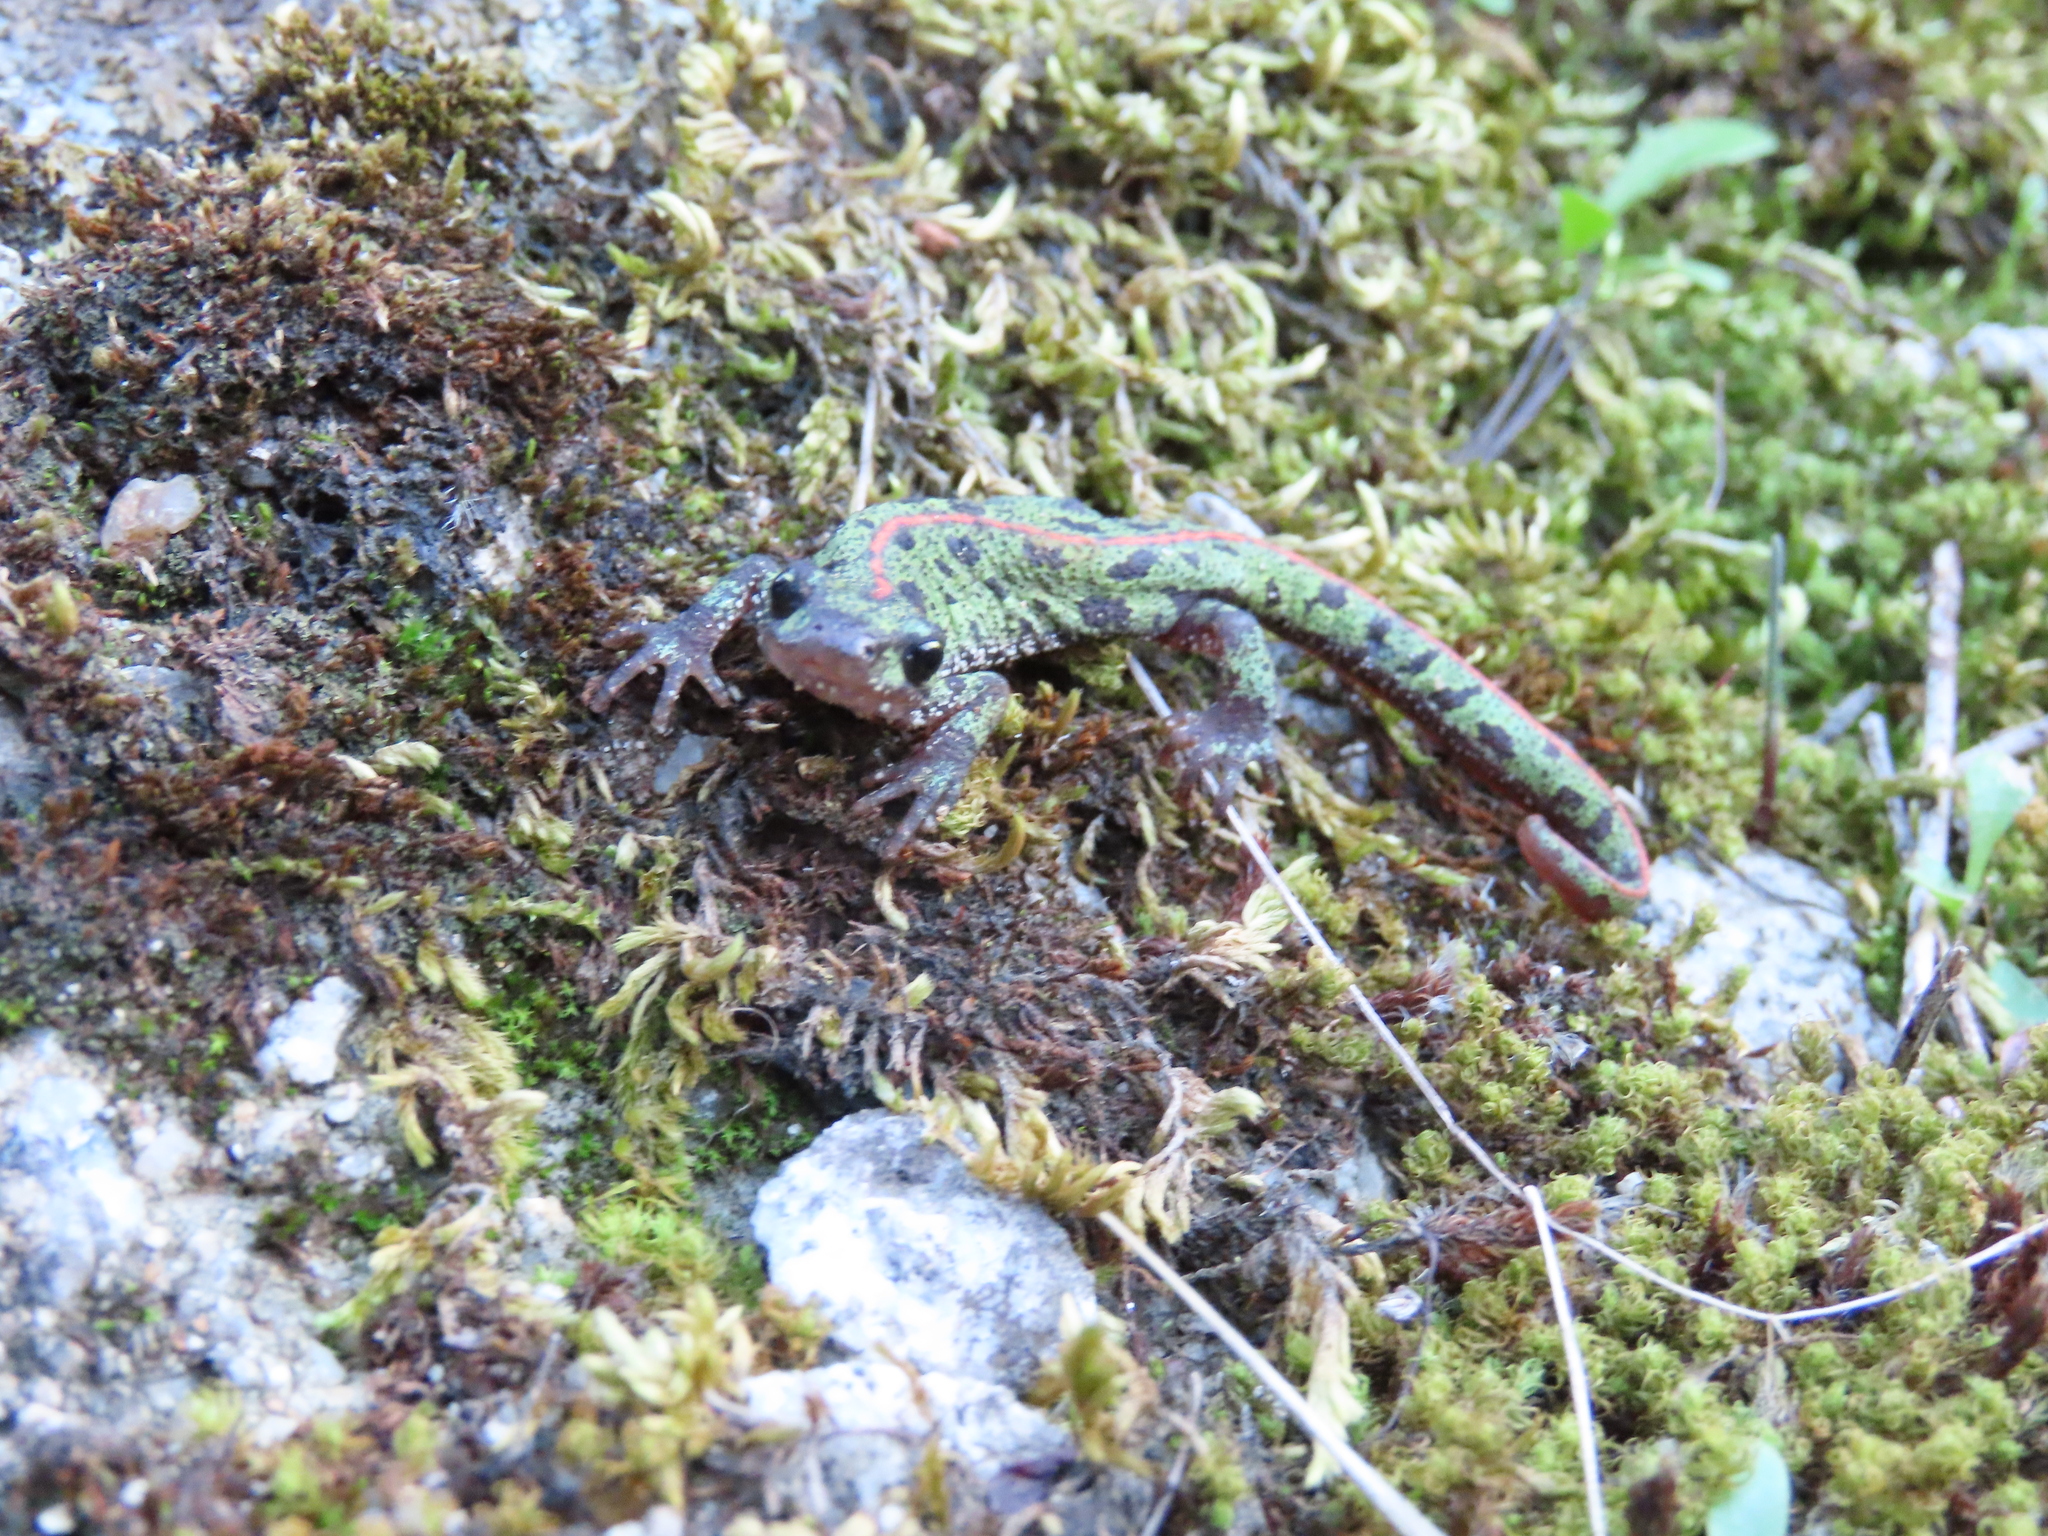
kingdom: Animalia
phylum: Chordata
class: Amphibia
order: Caudata
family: Salamandridae
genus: Triturus
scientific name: Triturus pygmaeus
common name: Southern marbled newt
